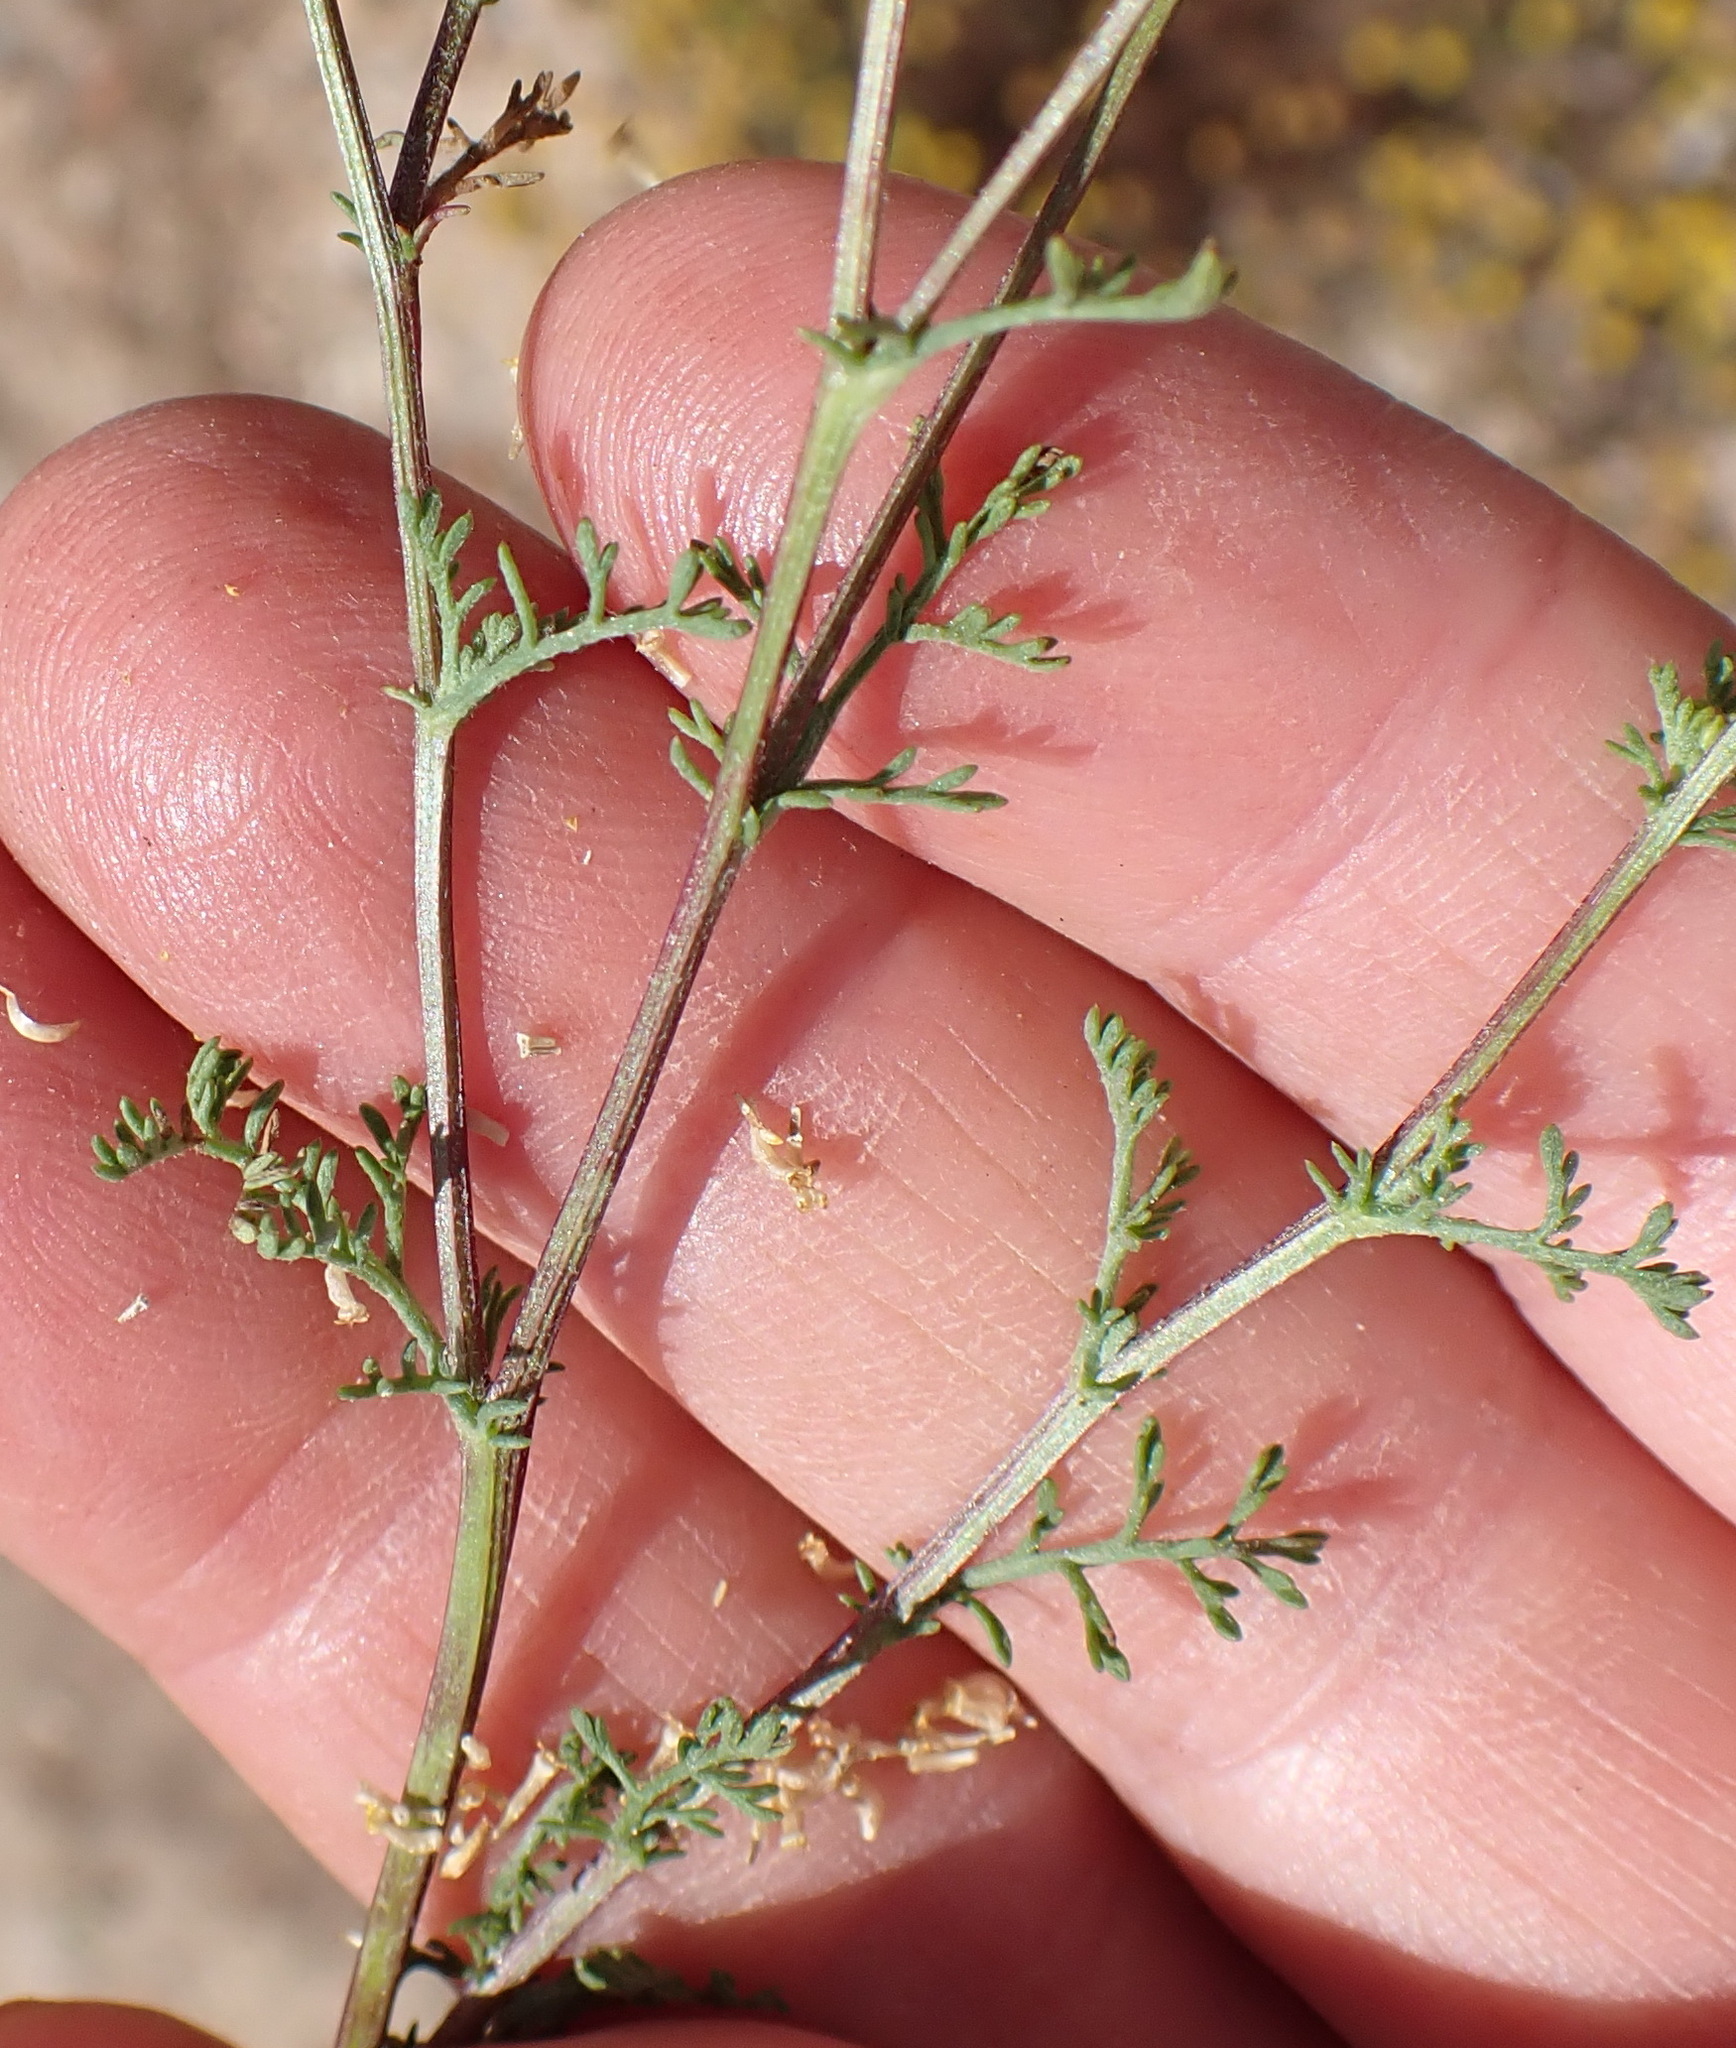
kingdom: Plantae
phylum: Tracheophyta
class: Magnoliopsida
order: Asterales
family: Asteraceae
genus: Oncosiphon
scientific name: Oncosiphon pilulifer
